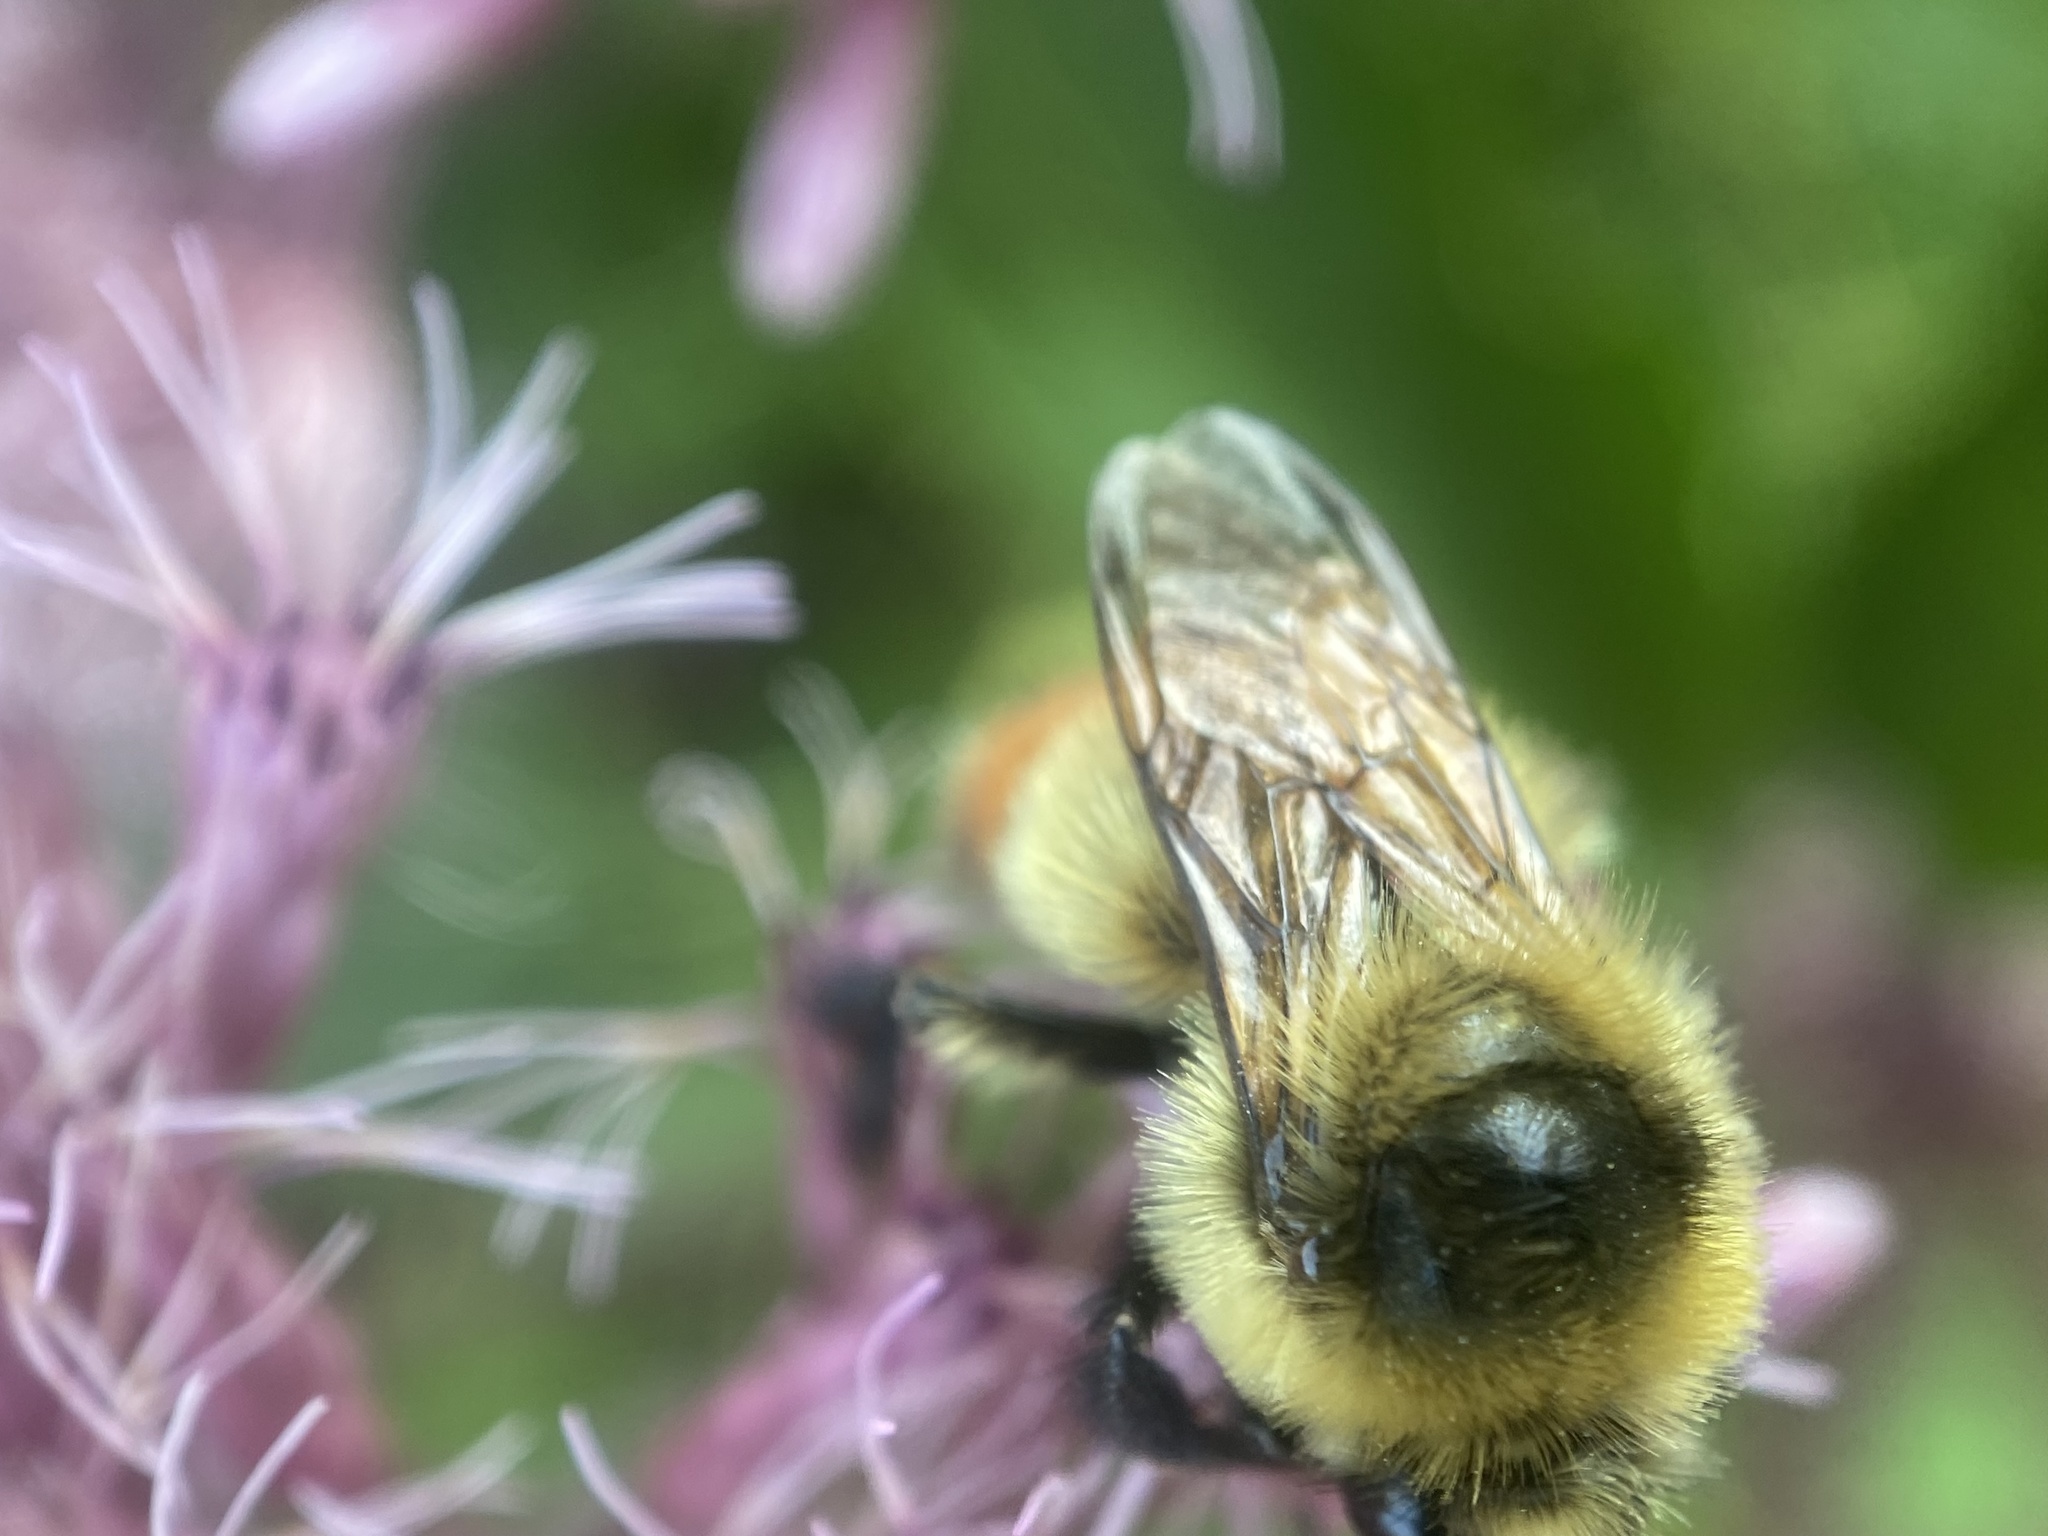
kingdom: Animalia
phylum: Arthropoda
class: Insecta
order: Hymenoptera
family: Apidae
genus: Bombus
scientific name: Bombus rufocinctus
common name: Red-belted bumble bee
